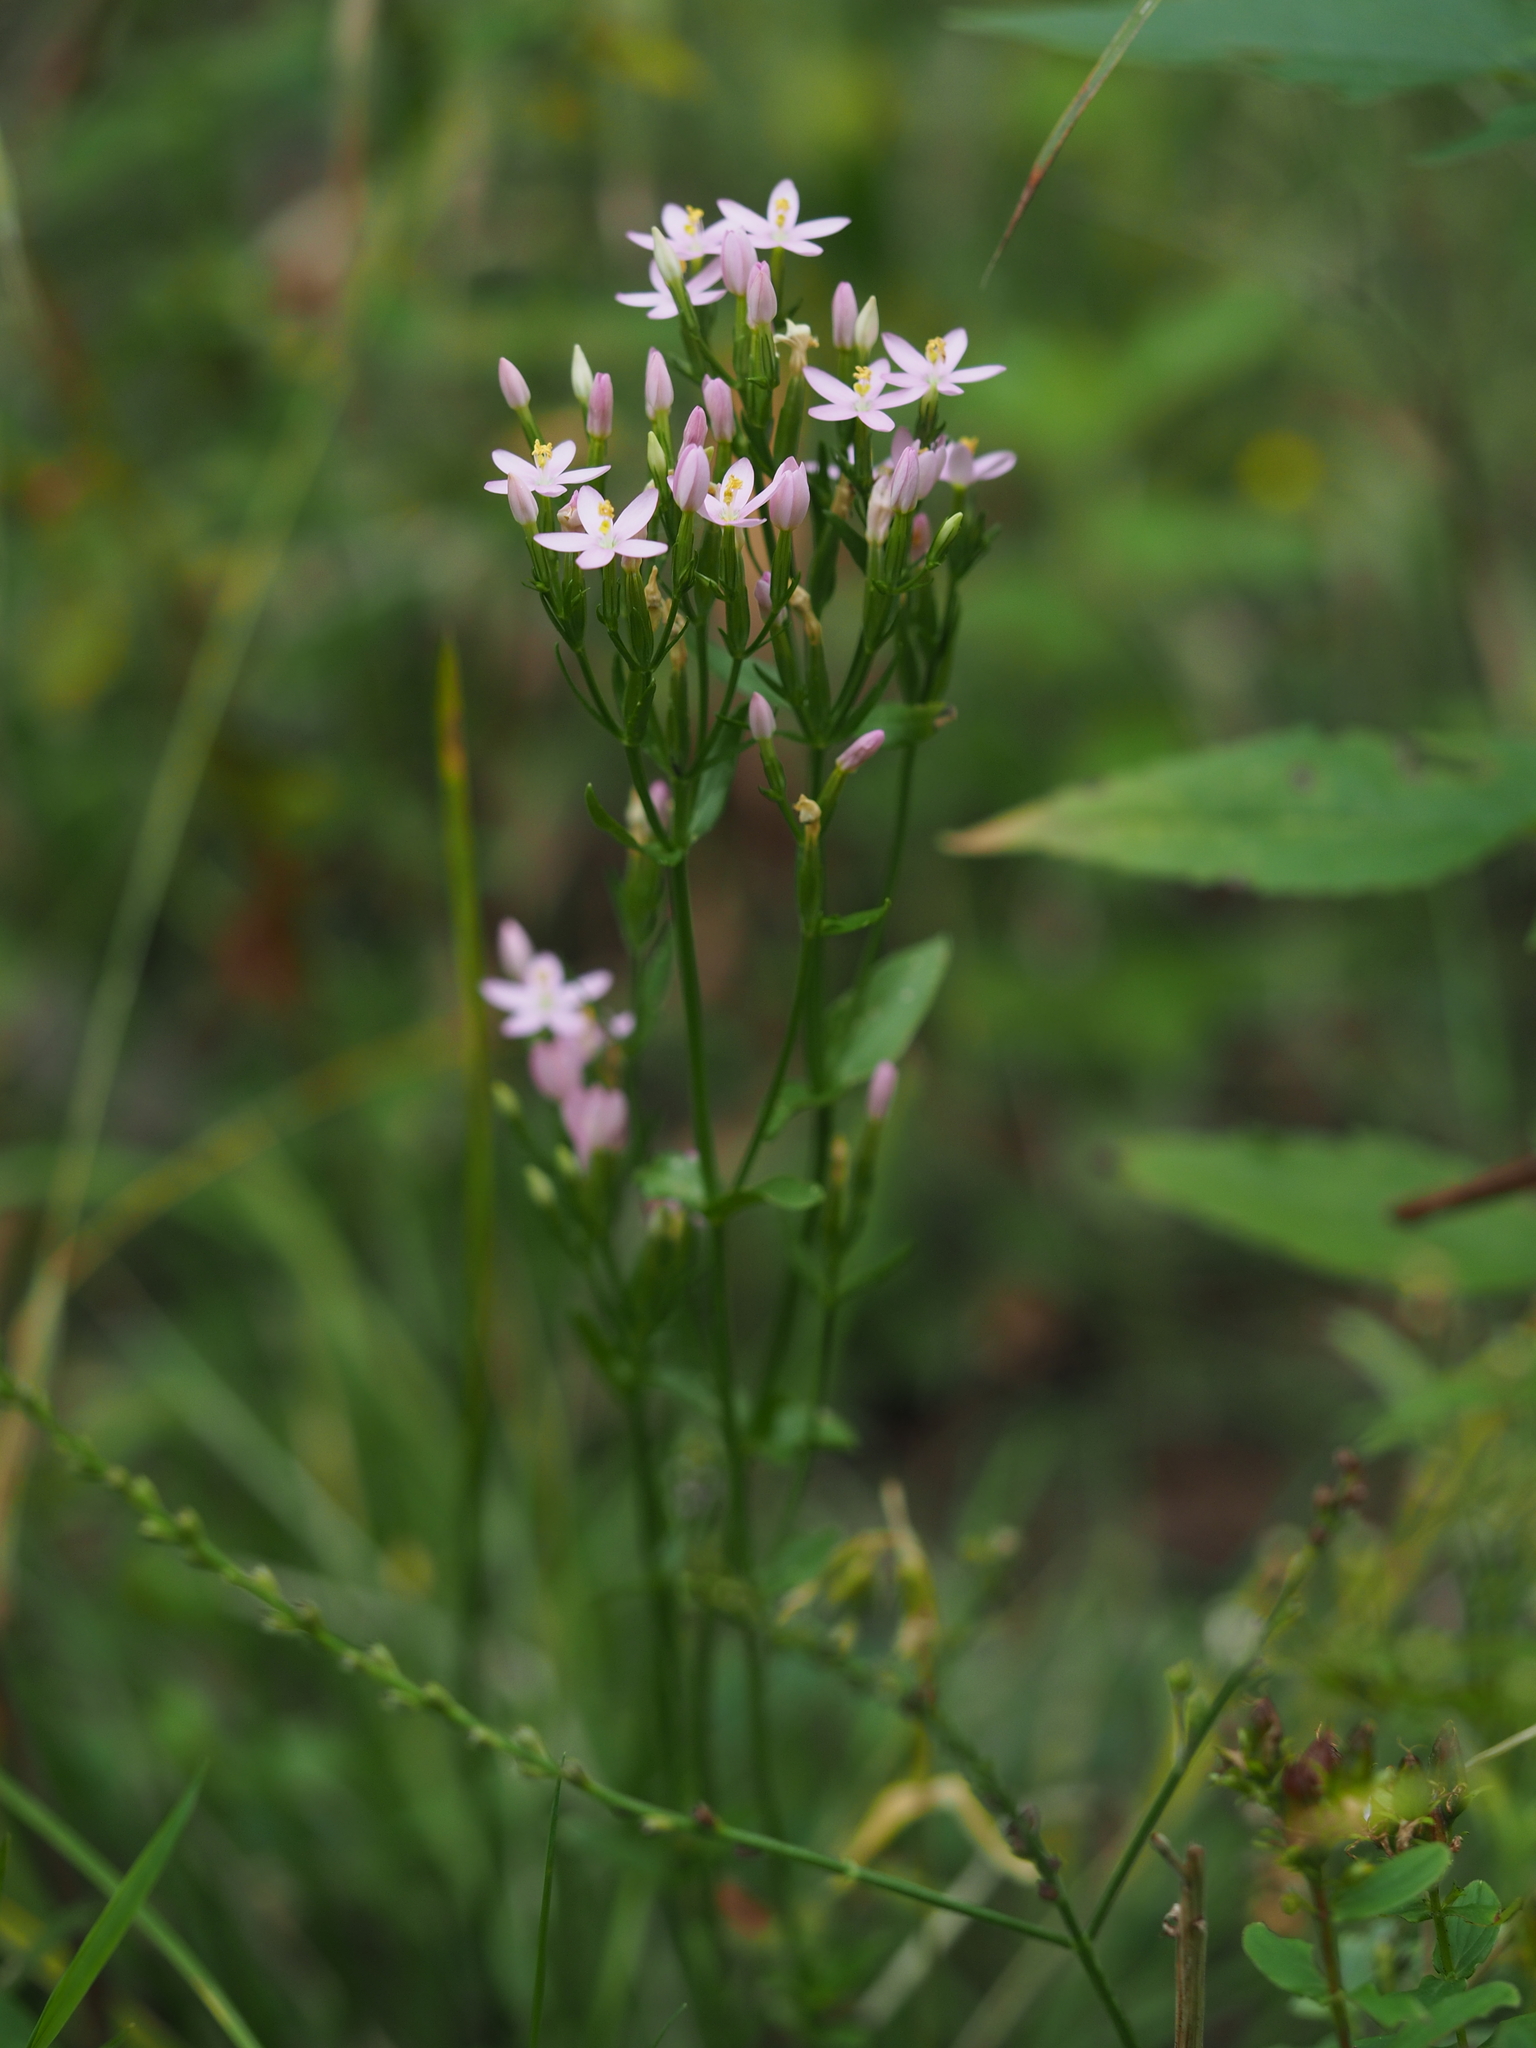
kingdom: Plantae
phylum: Tracheophyta
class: Magnoliopsida
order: Gentianales
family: Gentianaceae
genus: Centaurium
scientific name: Centaurium erythraea
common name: Common centaury
